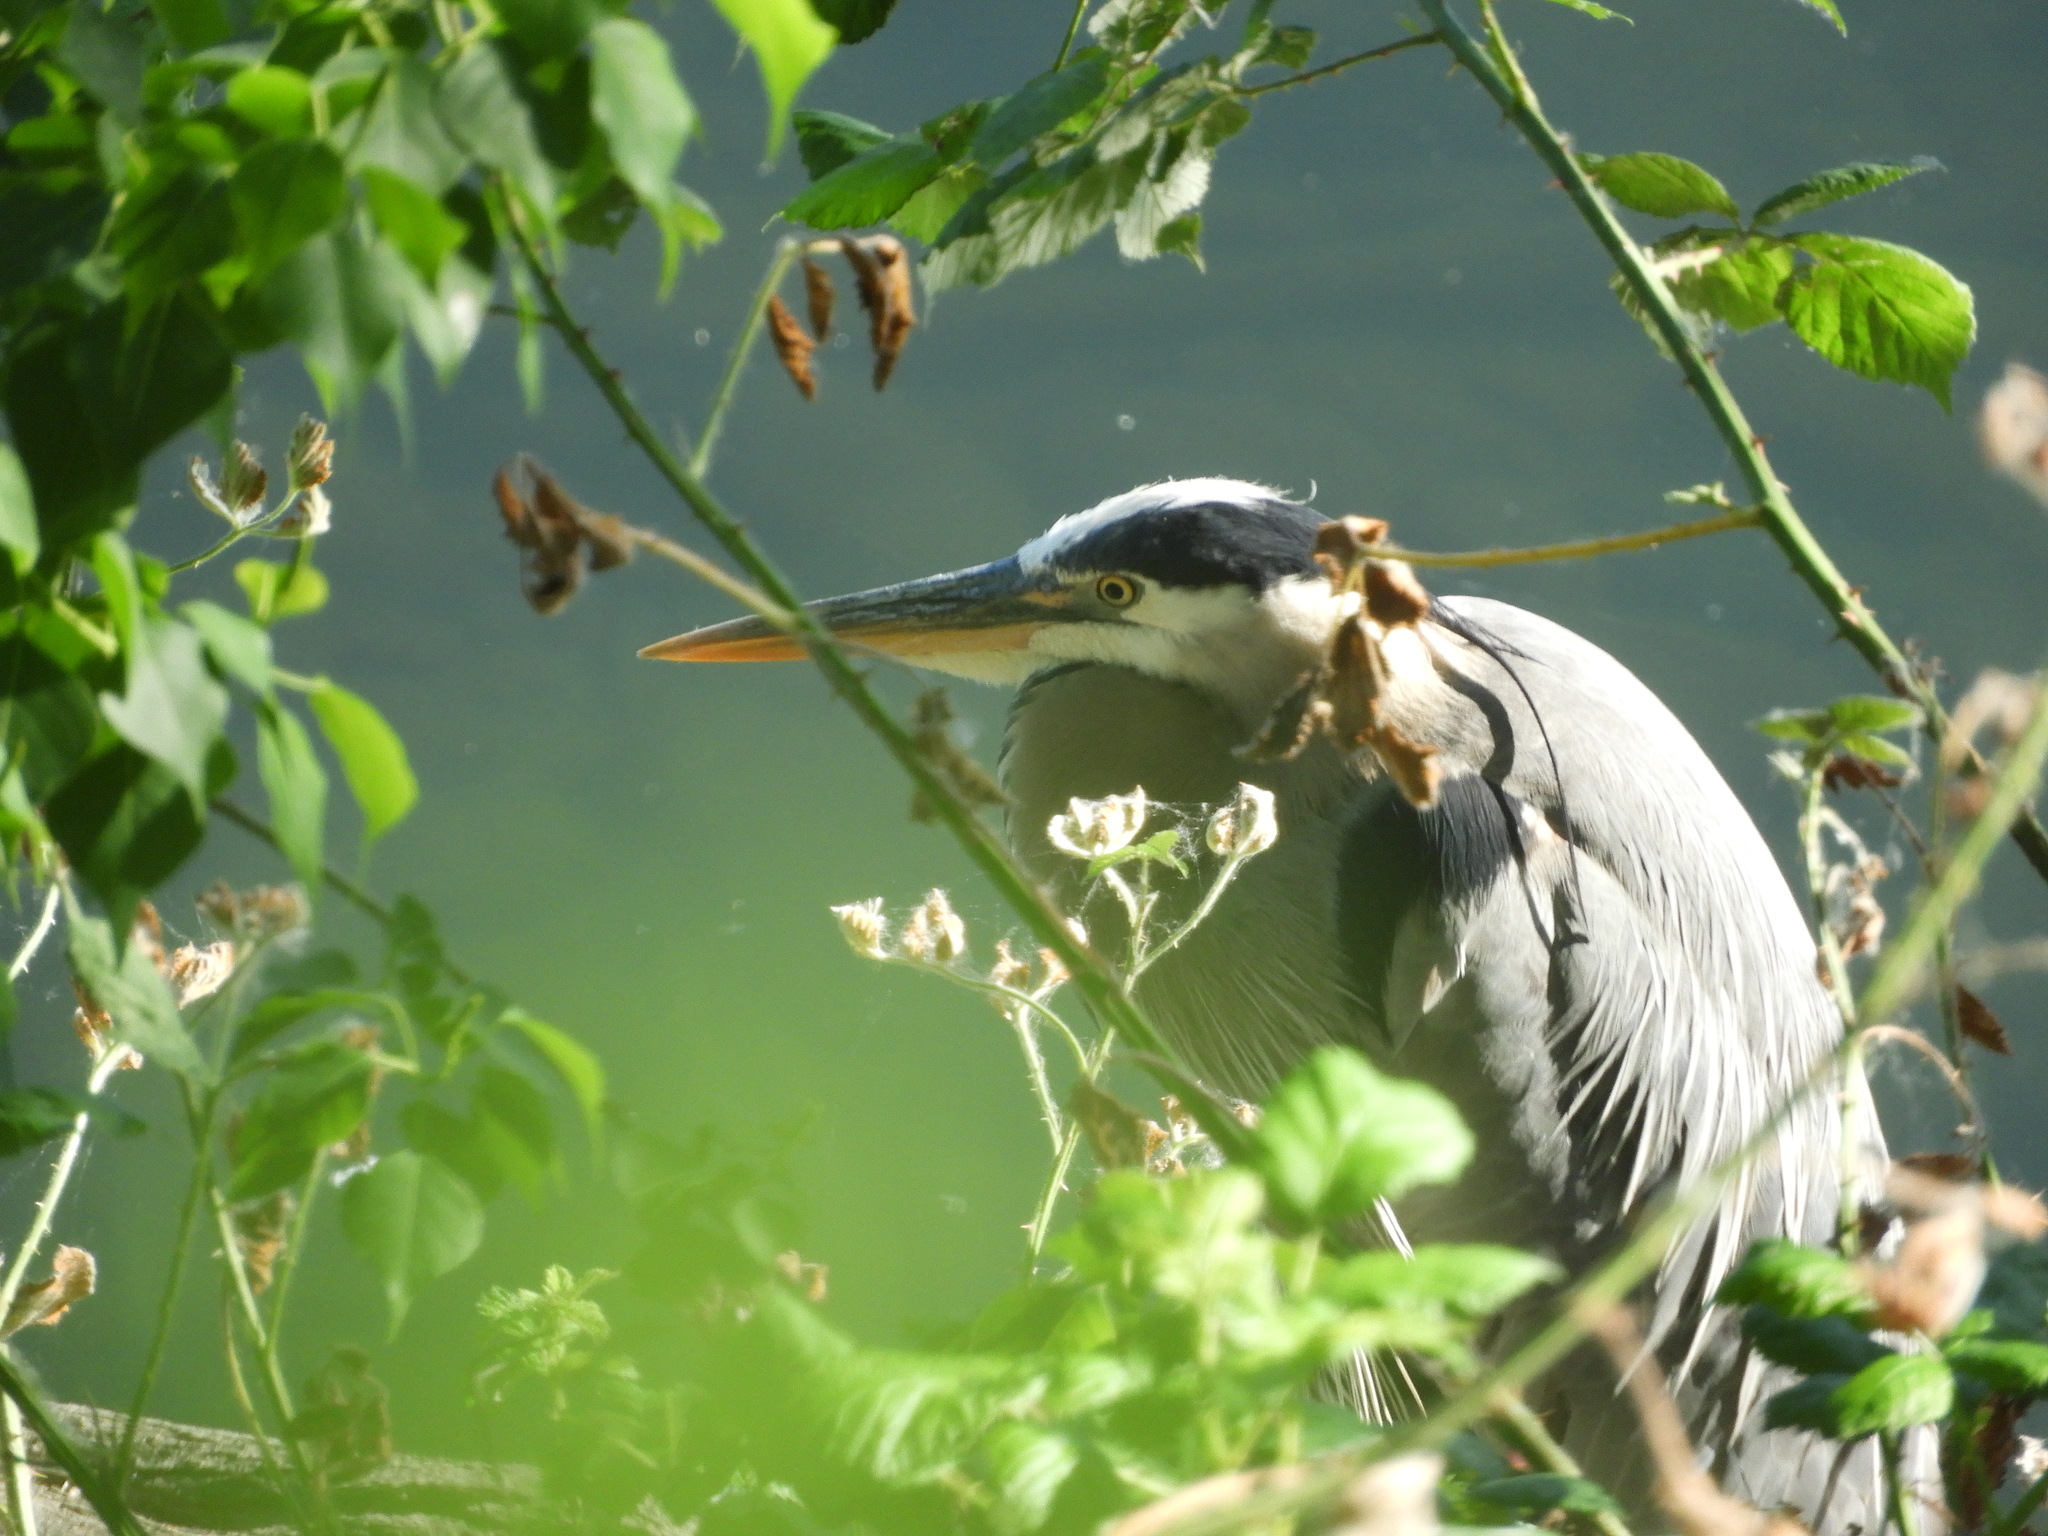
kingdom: Animalia
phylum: Chordata
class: Aves
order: Pelecaniformes
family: Ardeidae
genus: Ardea
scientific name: Ardea herodias
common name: Great blue heron
